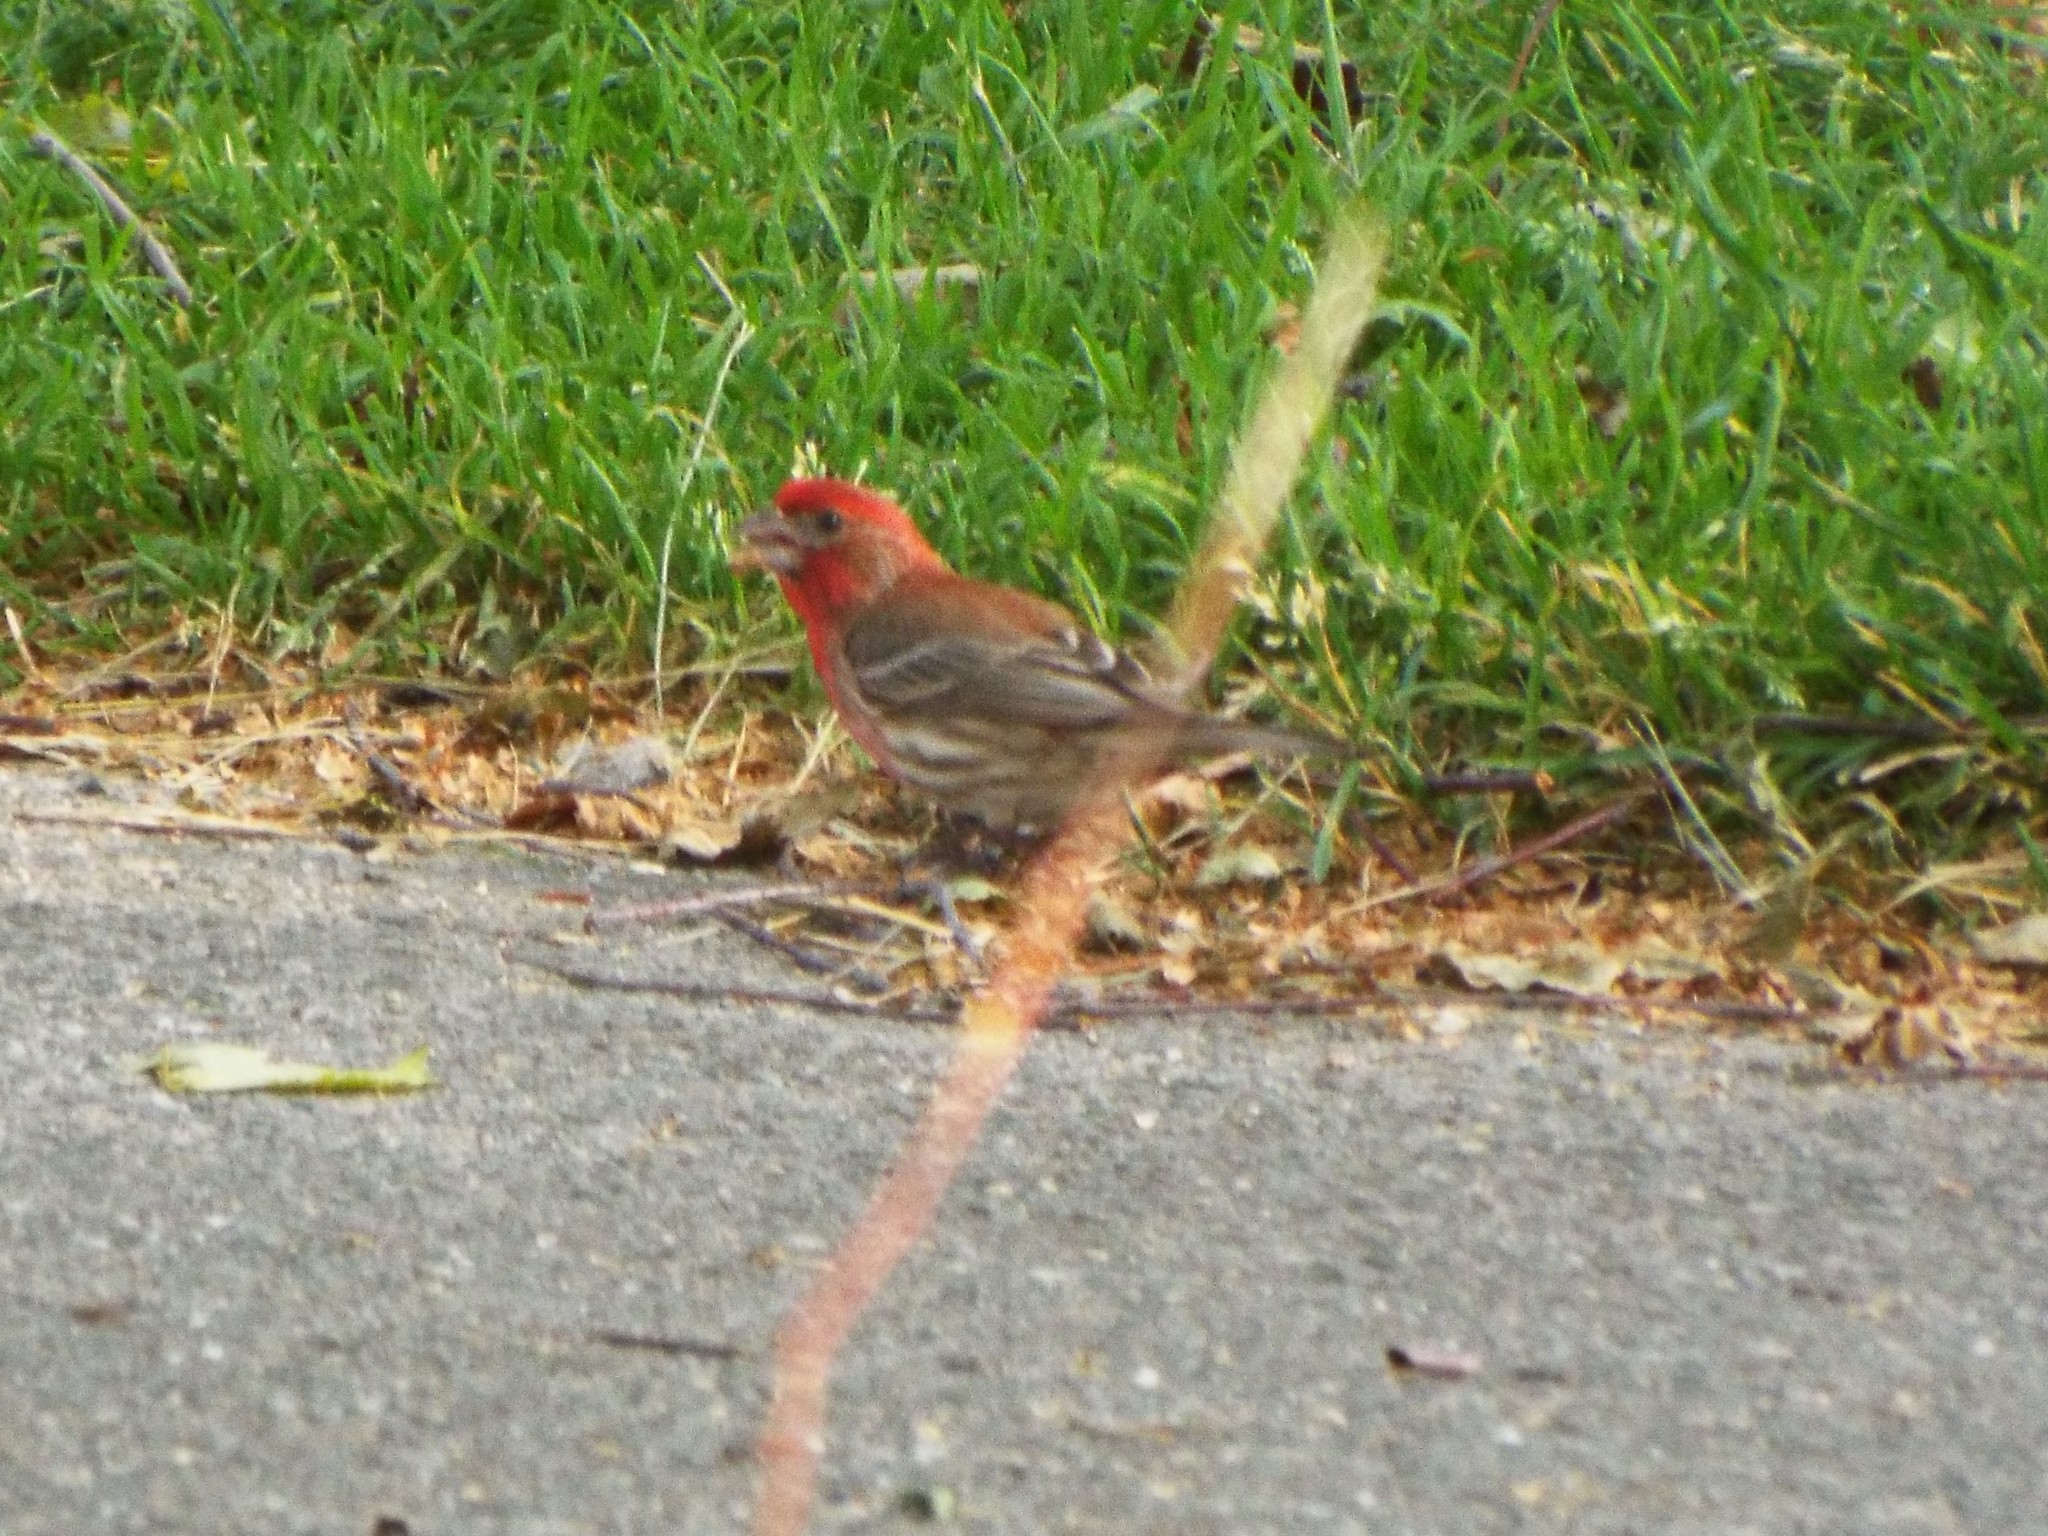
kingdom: Animalia
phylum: Chordata
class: Aves
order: Passeriformes
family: Fringillidae
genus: Haemorhous
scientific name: Haemorhous mexicanus
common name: House finch
